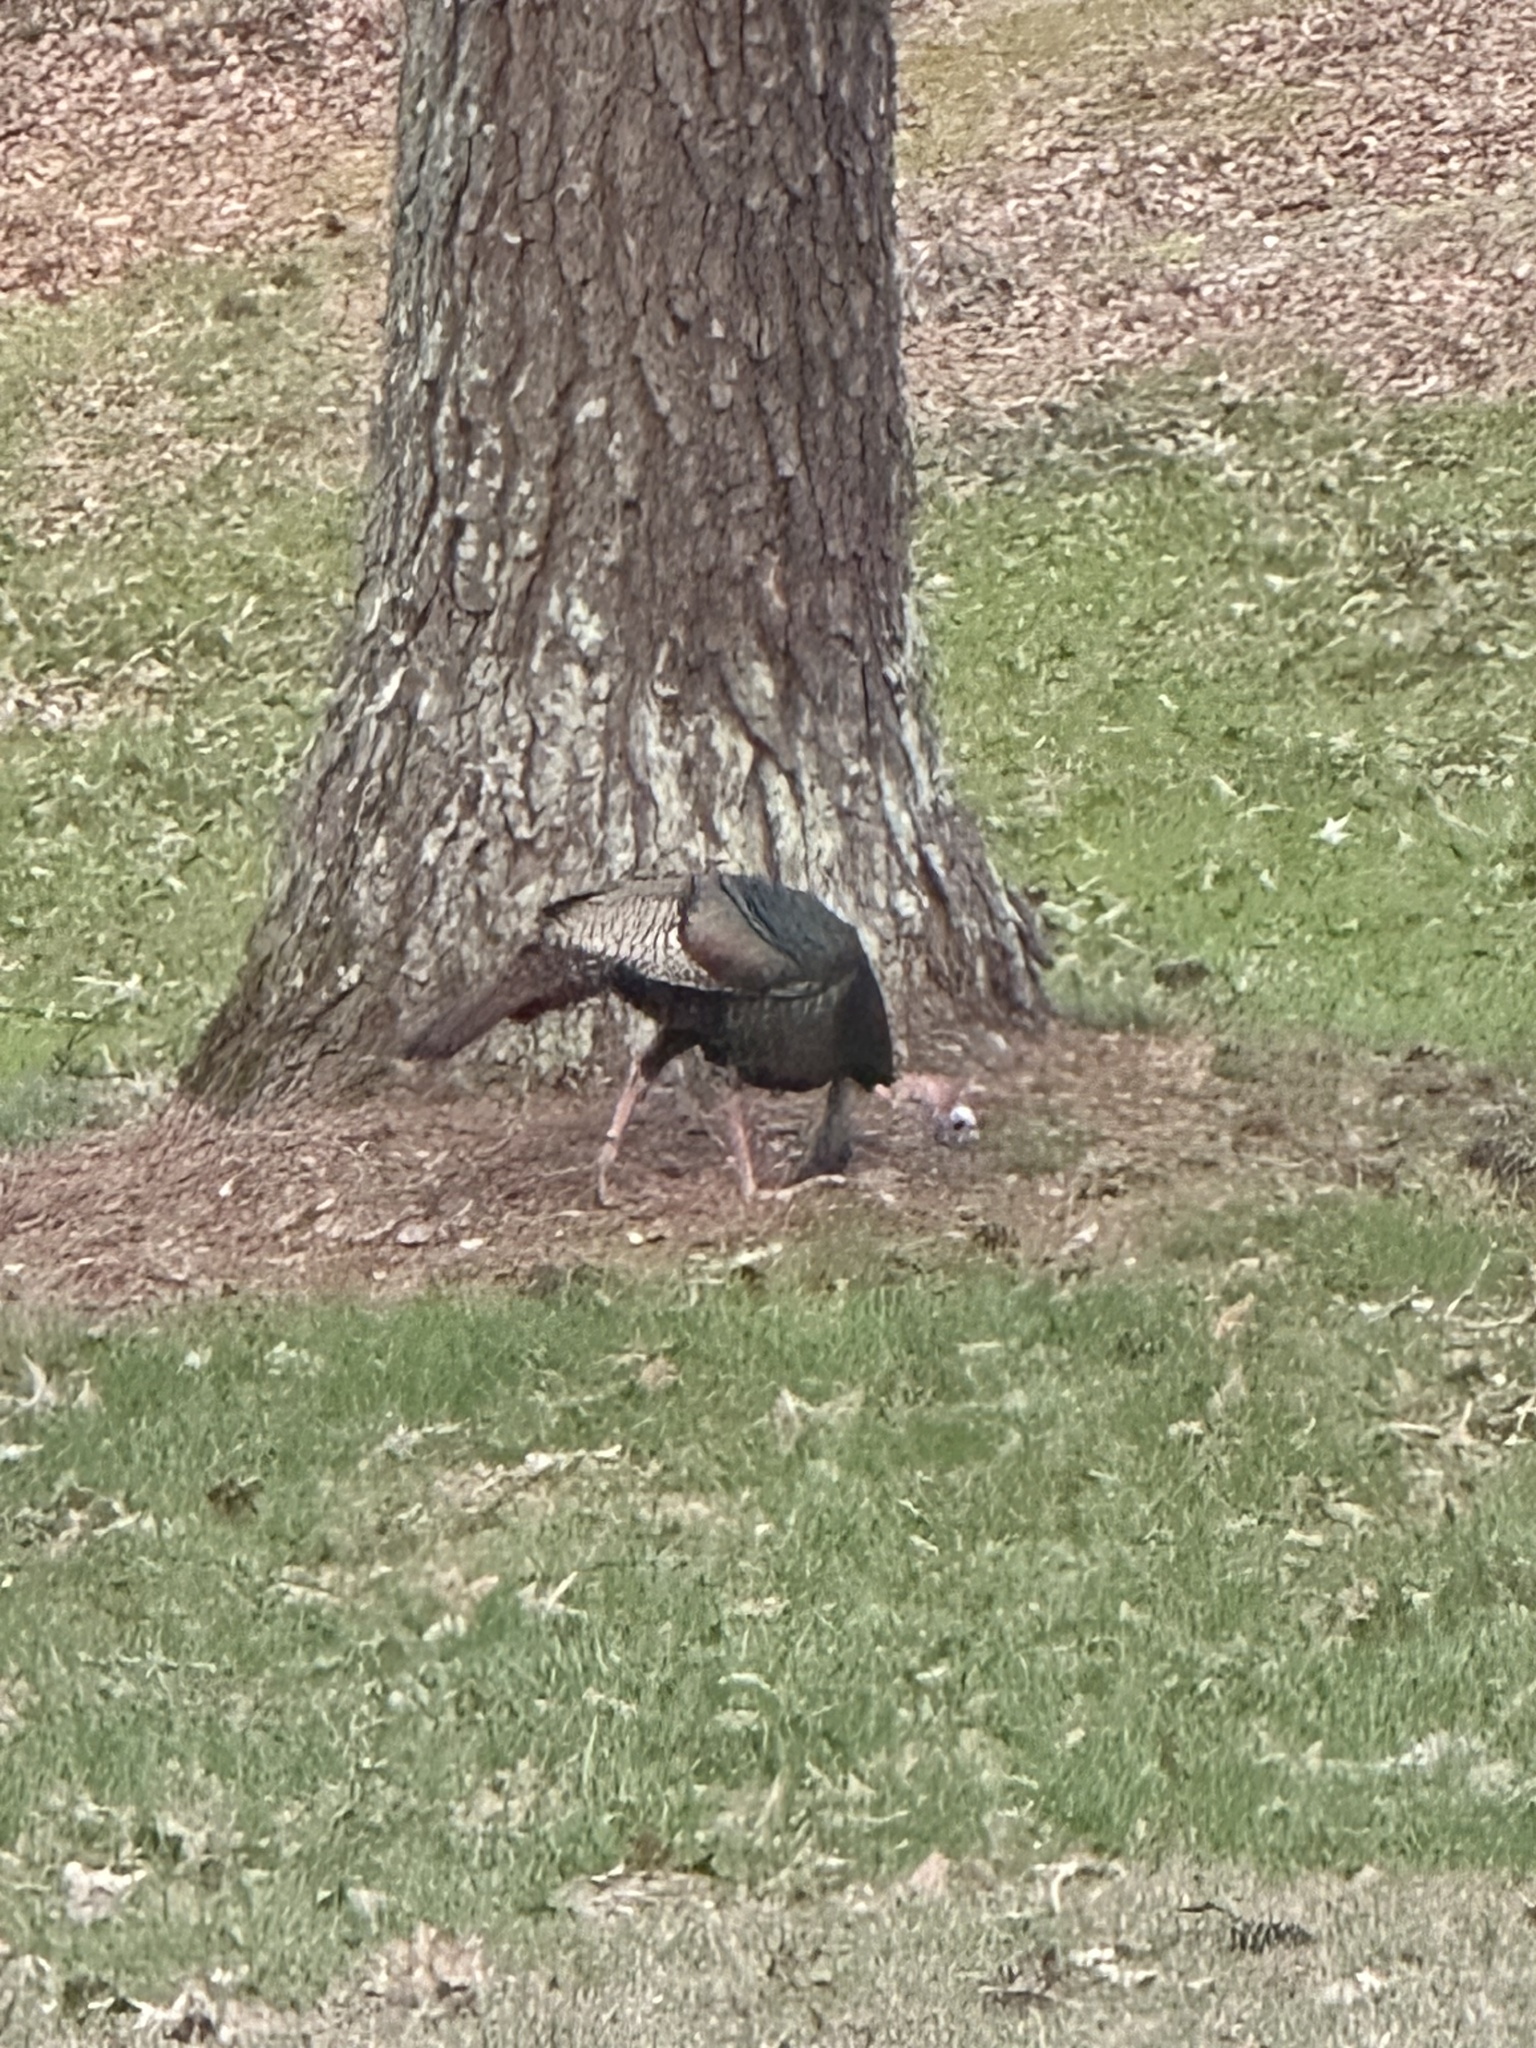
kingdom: Animalia
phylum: Chordata
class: Aves
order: Galliformes
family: Phasianidae
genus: Meleagris
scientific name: Meleagris gallopavo
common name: Wild turkey
